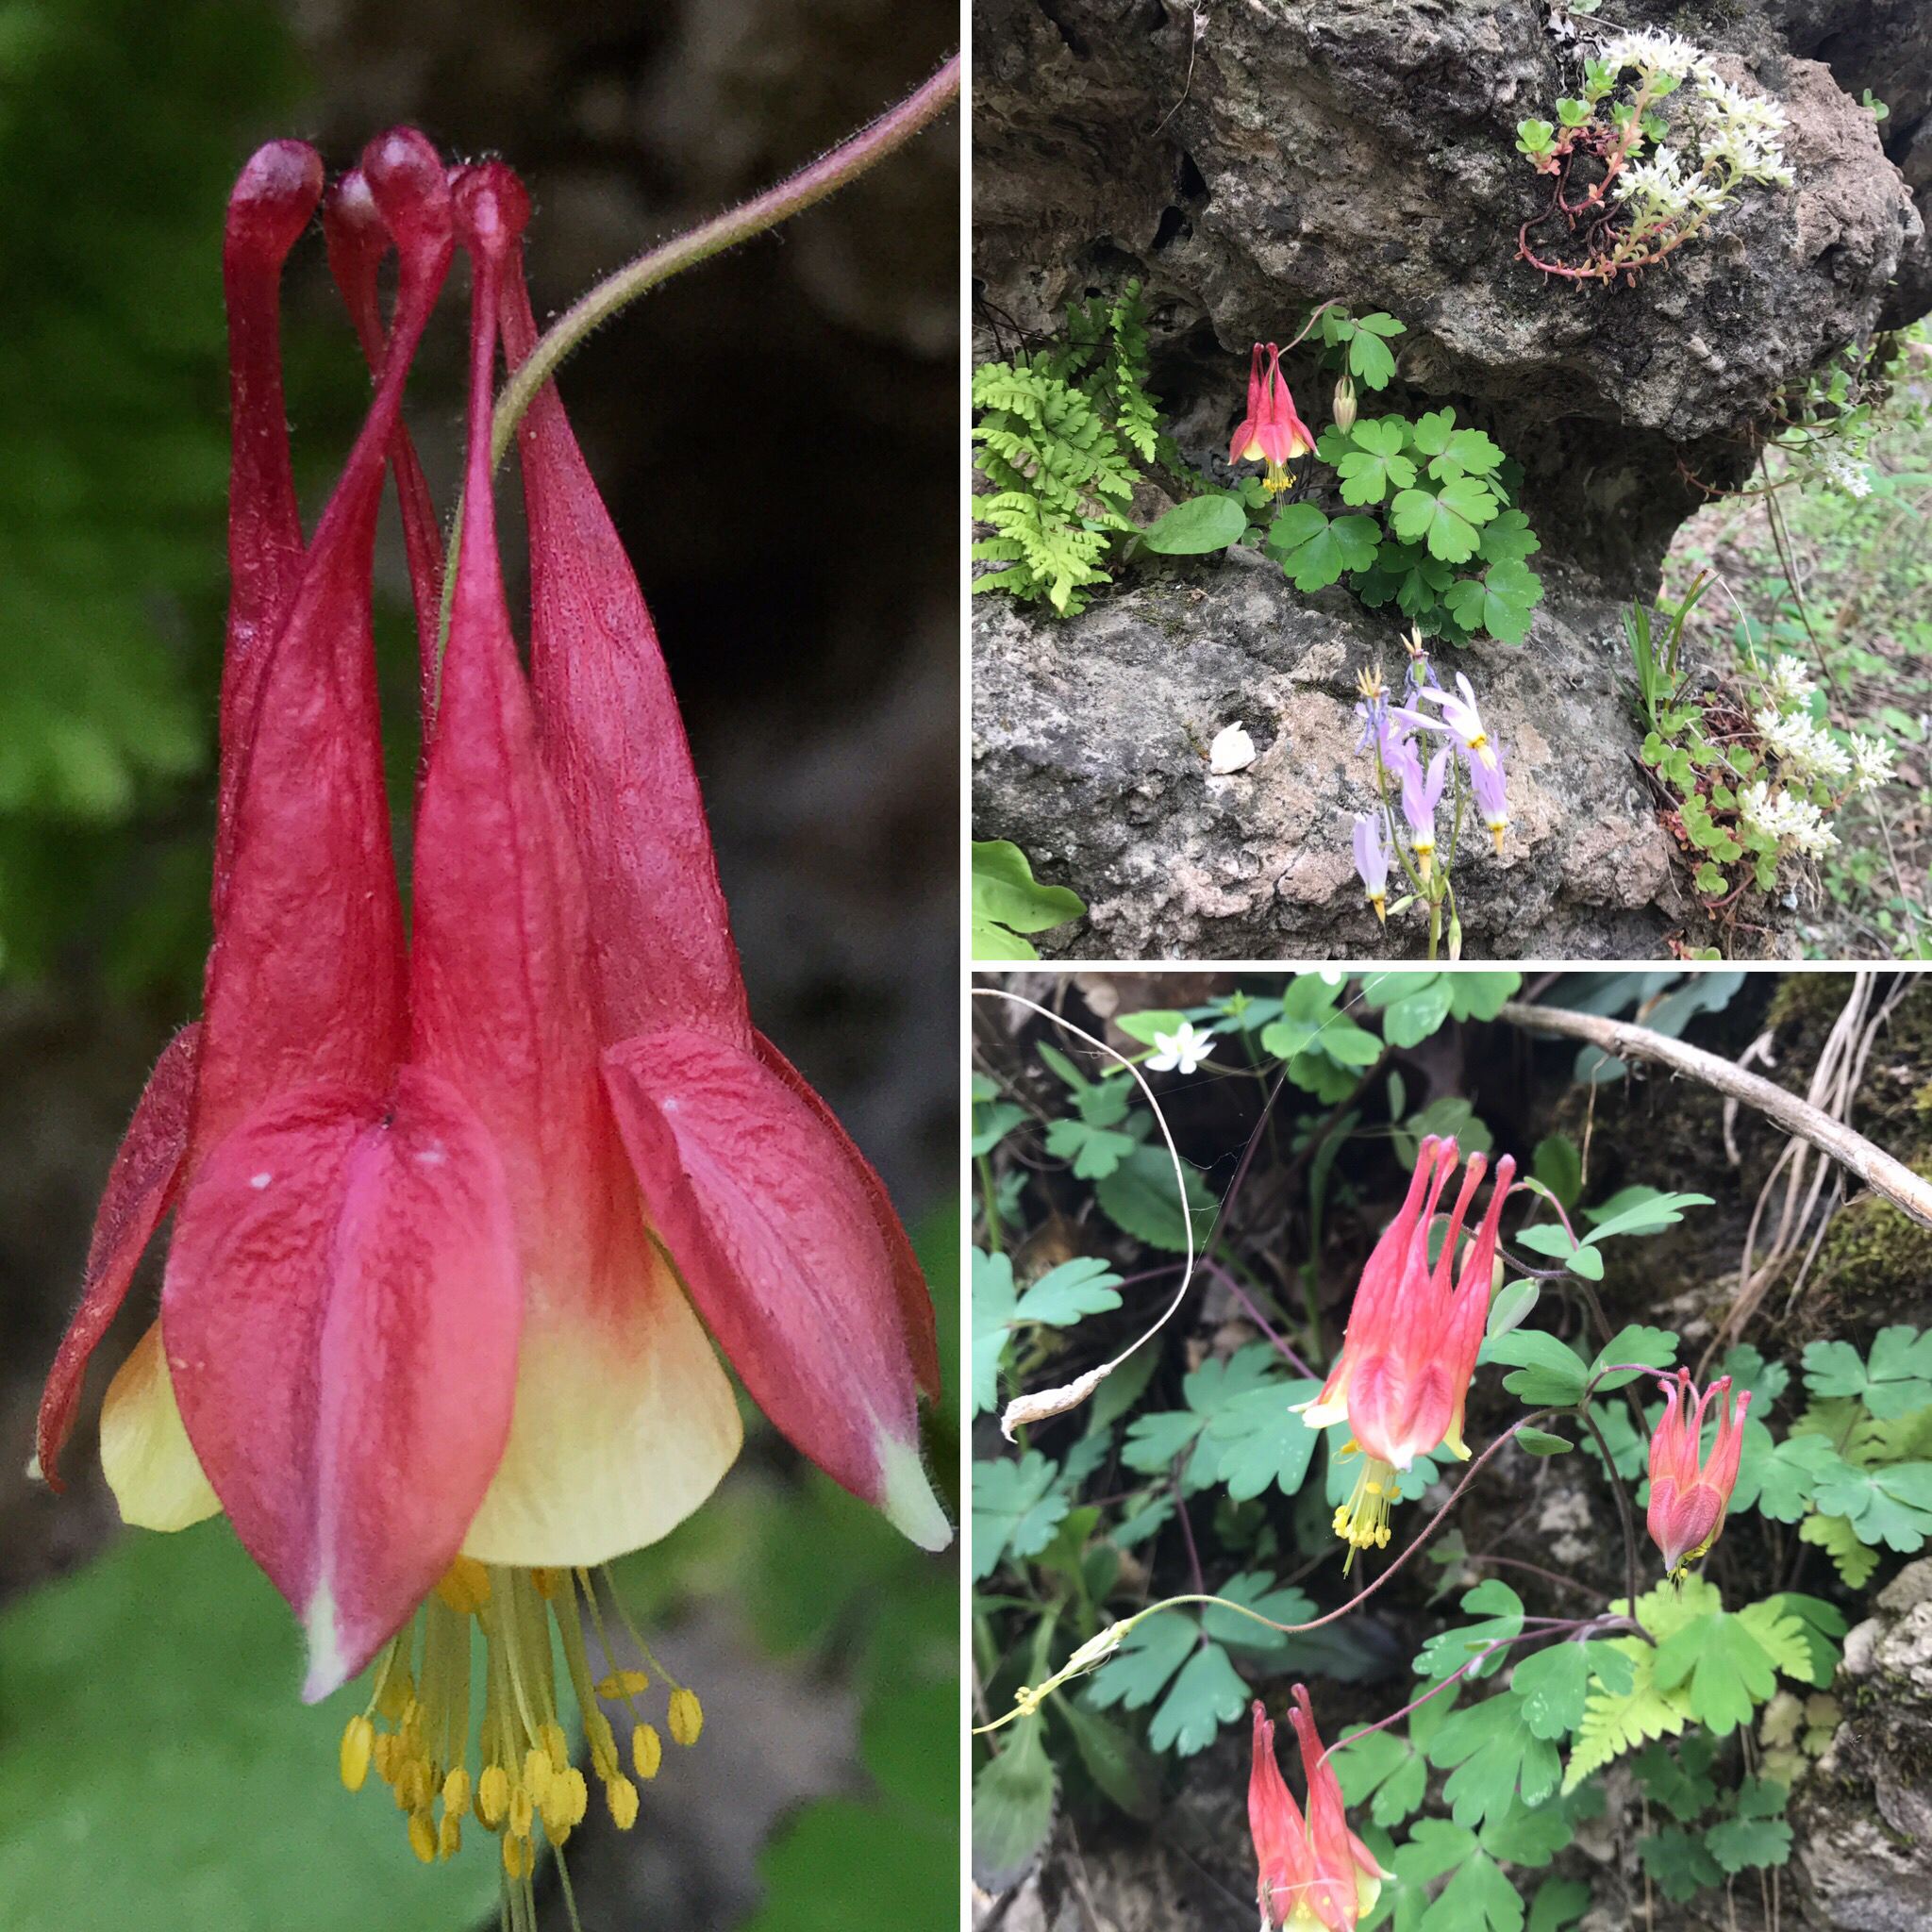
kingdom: Plantae
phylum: Tracheophyta
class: Magnoliopsida
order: Ranunculales
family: Ranunculaceae
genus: Aquilegia
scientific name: Aquilegia canadensis
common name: American columbine
